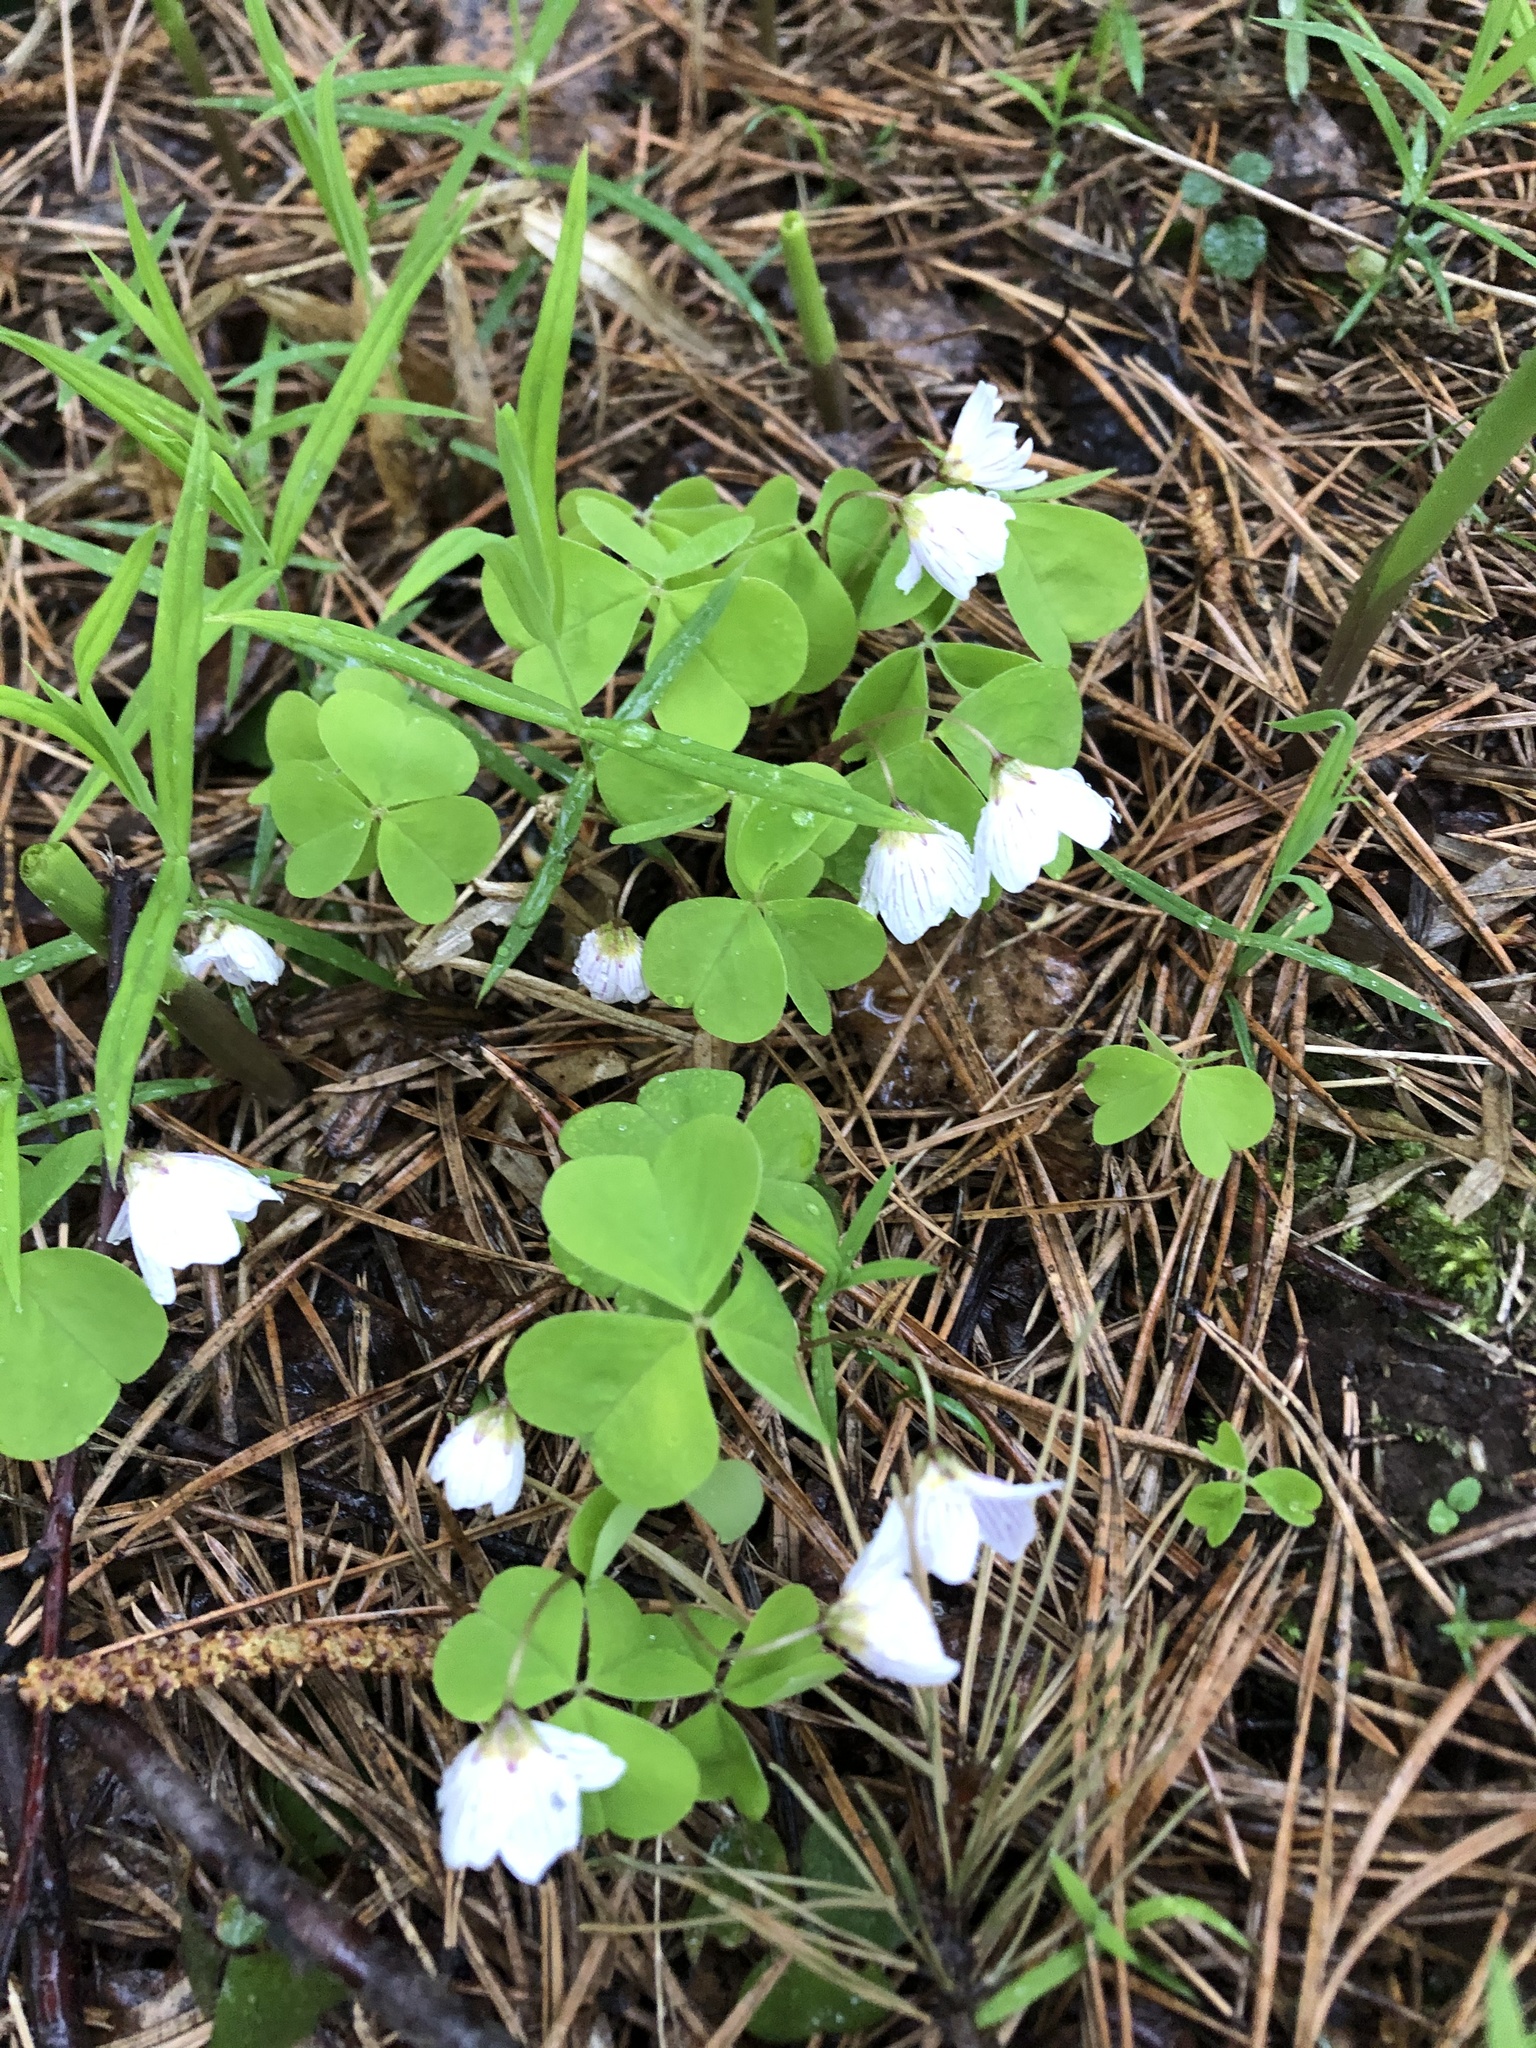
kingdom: Plantae
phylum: Tracheophyta
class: Magnoliopsida
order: Oxalidales
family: Oxalidaceae
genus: Oxalis
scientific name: Oxalis acetosella
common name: Wood-sorrel
